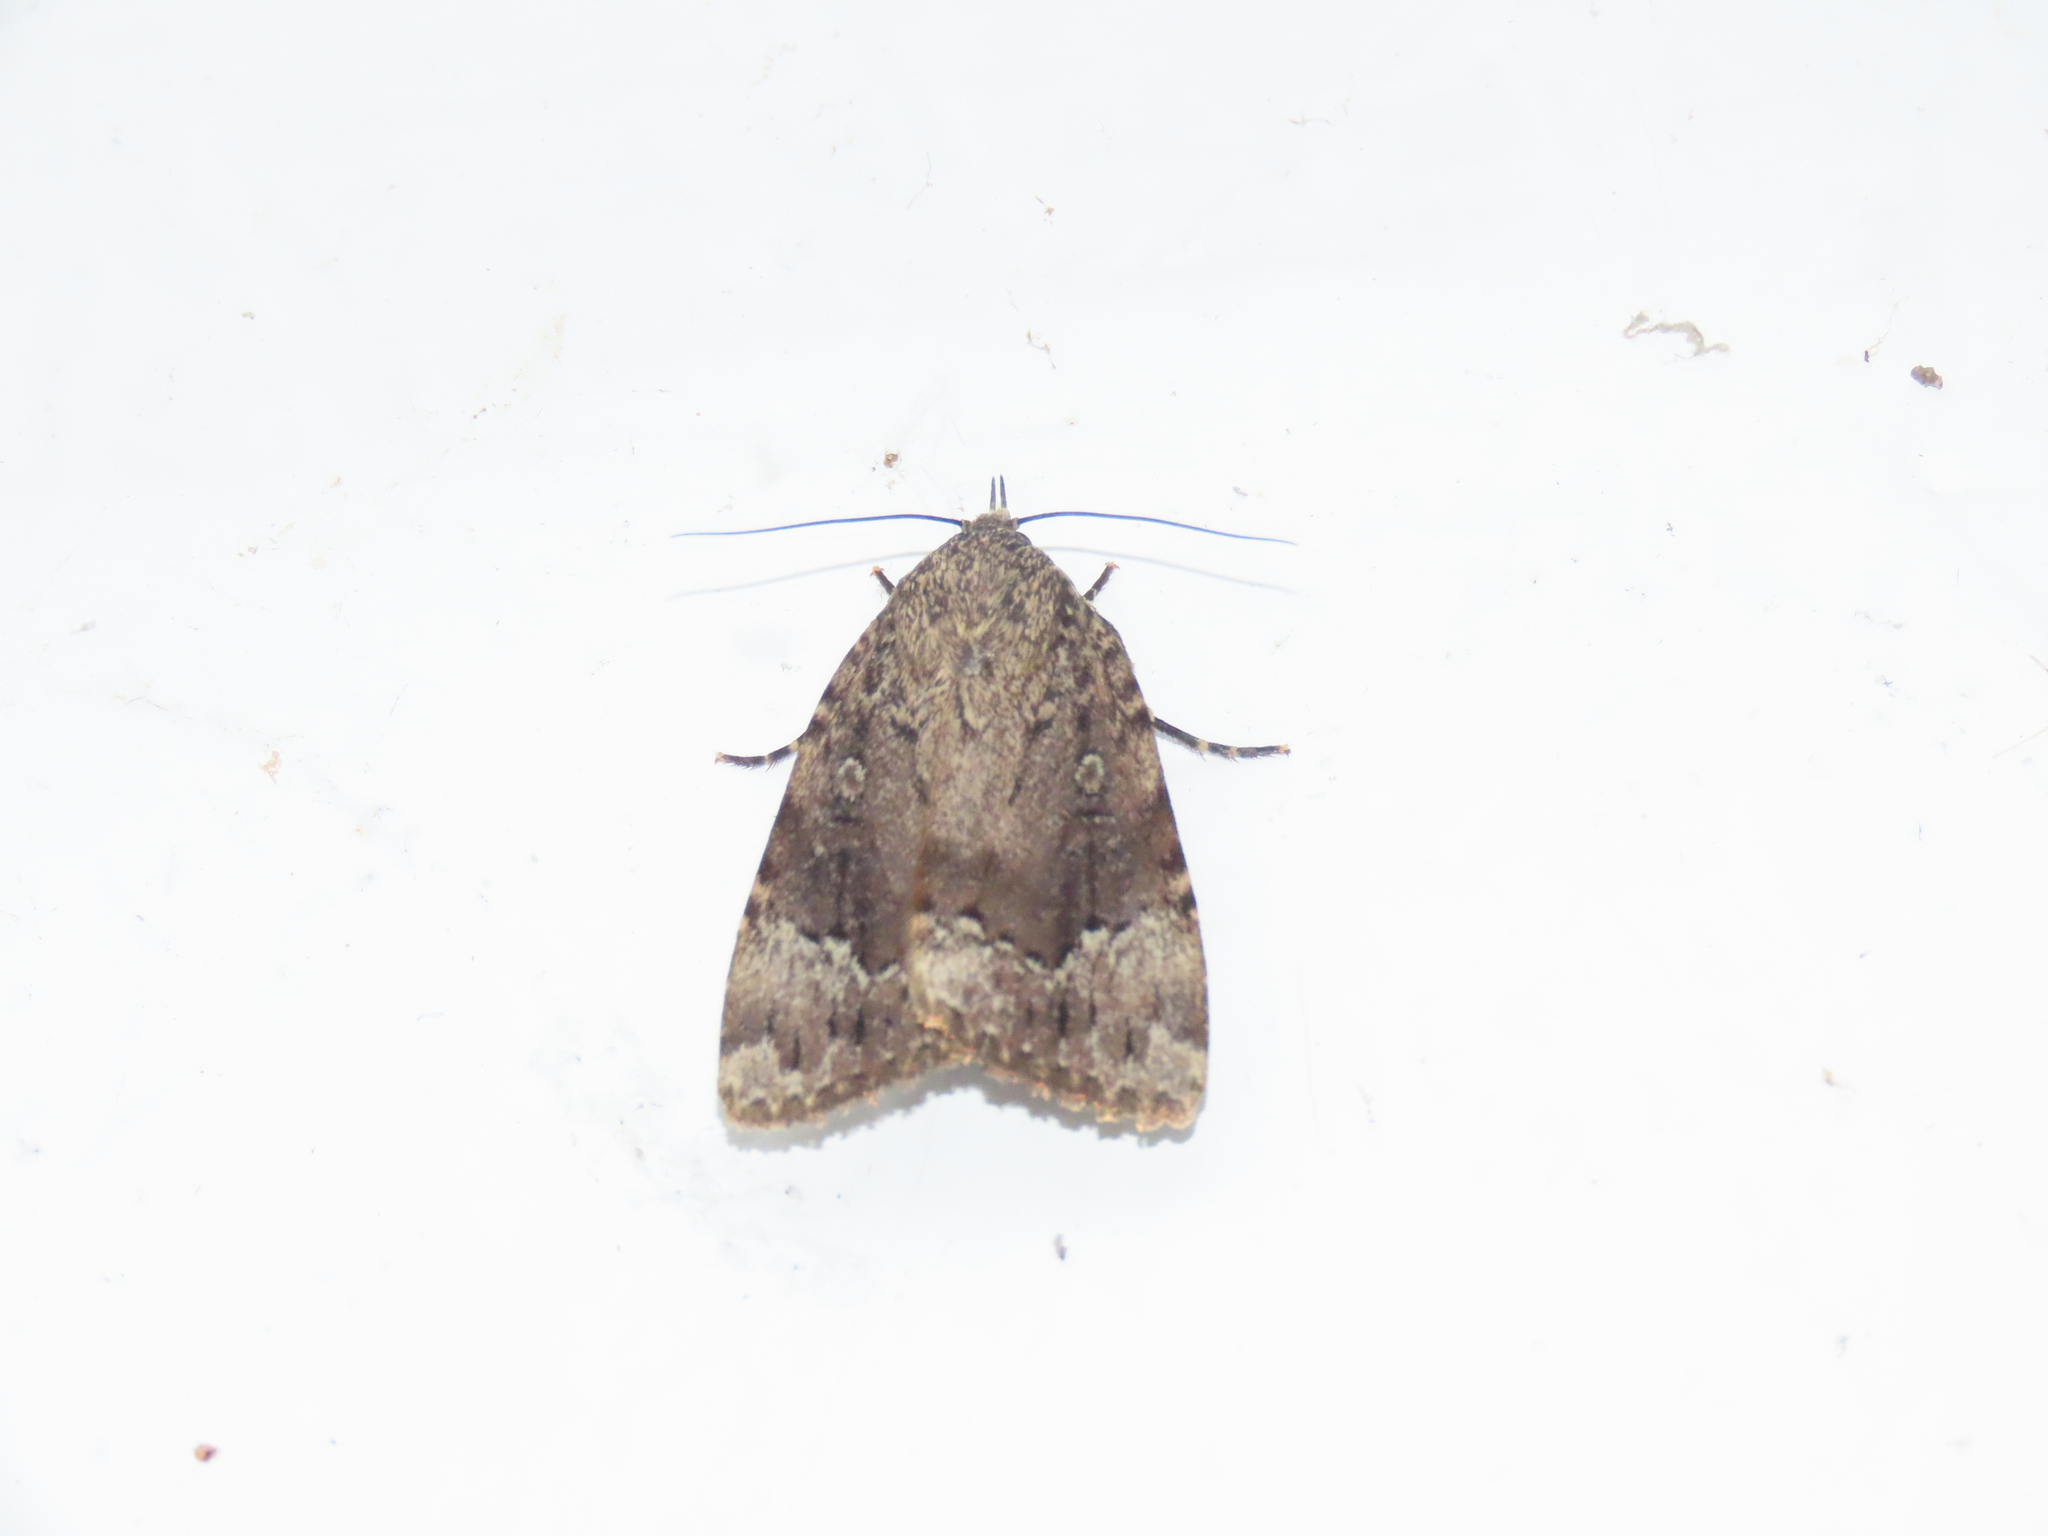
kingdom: Animalia
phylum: Arthropoda
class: Insecta
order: Lepidoptera
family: Noctuidae
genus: Amphipyra
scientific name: Amphipyra pyramidoides
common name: American copper underwing
